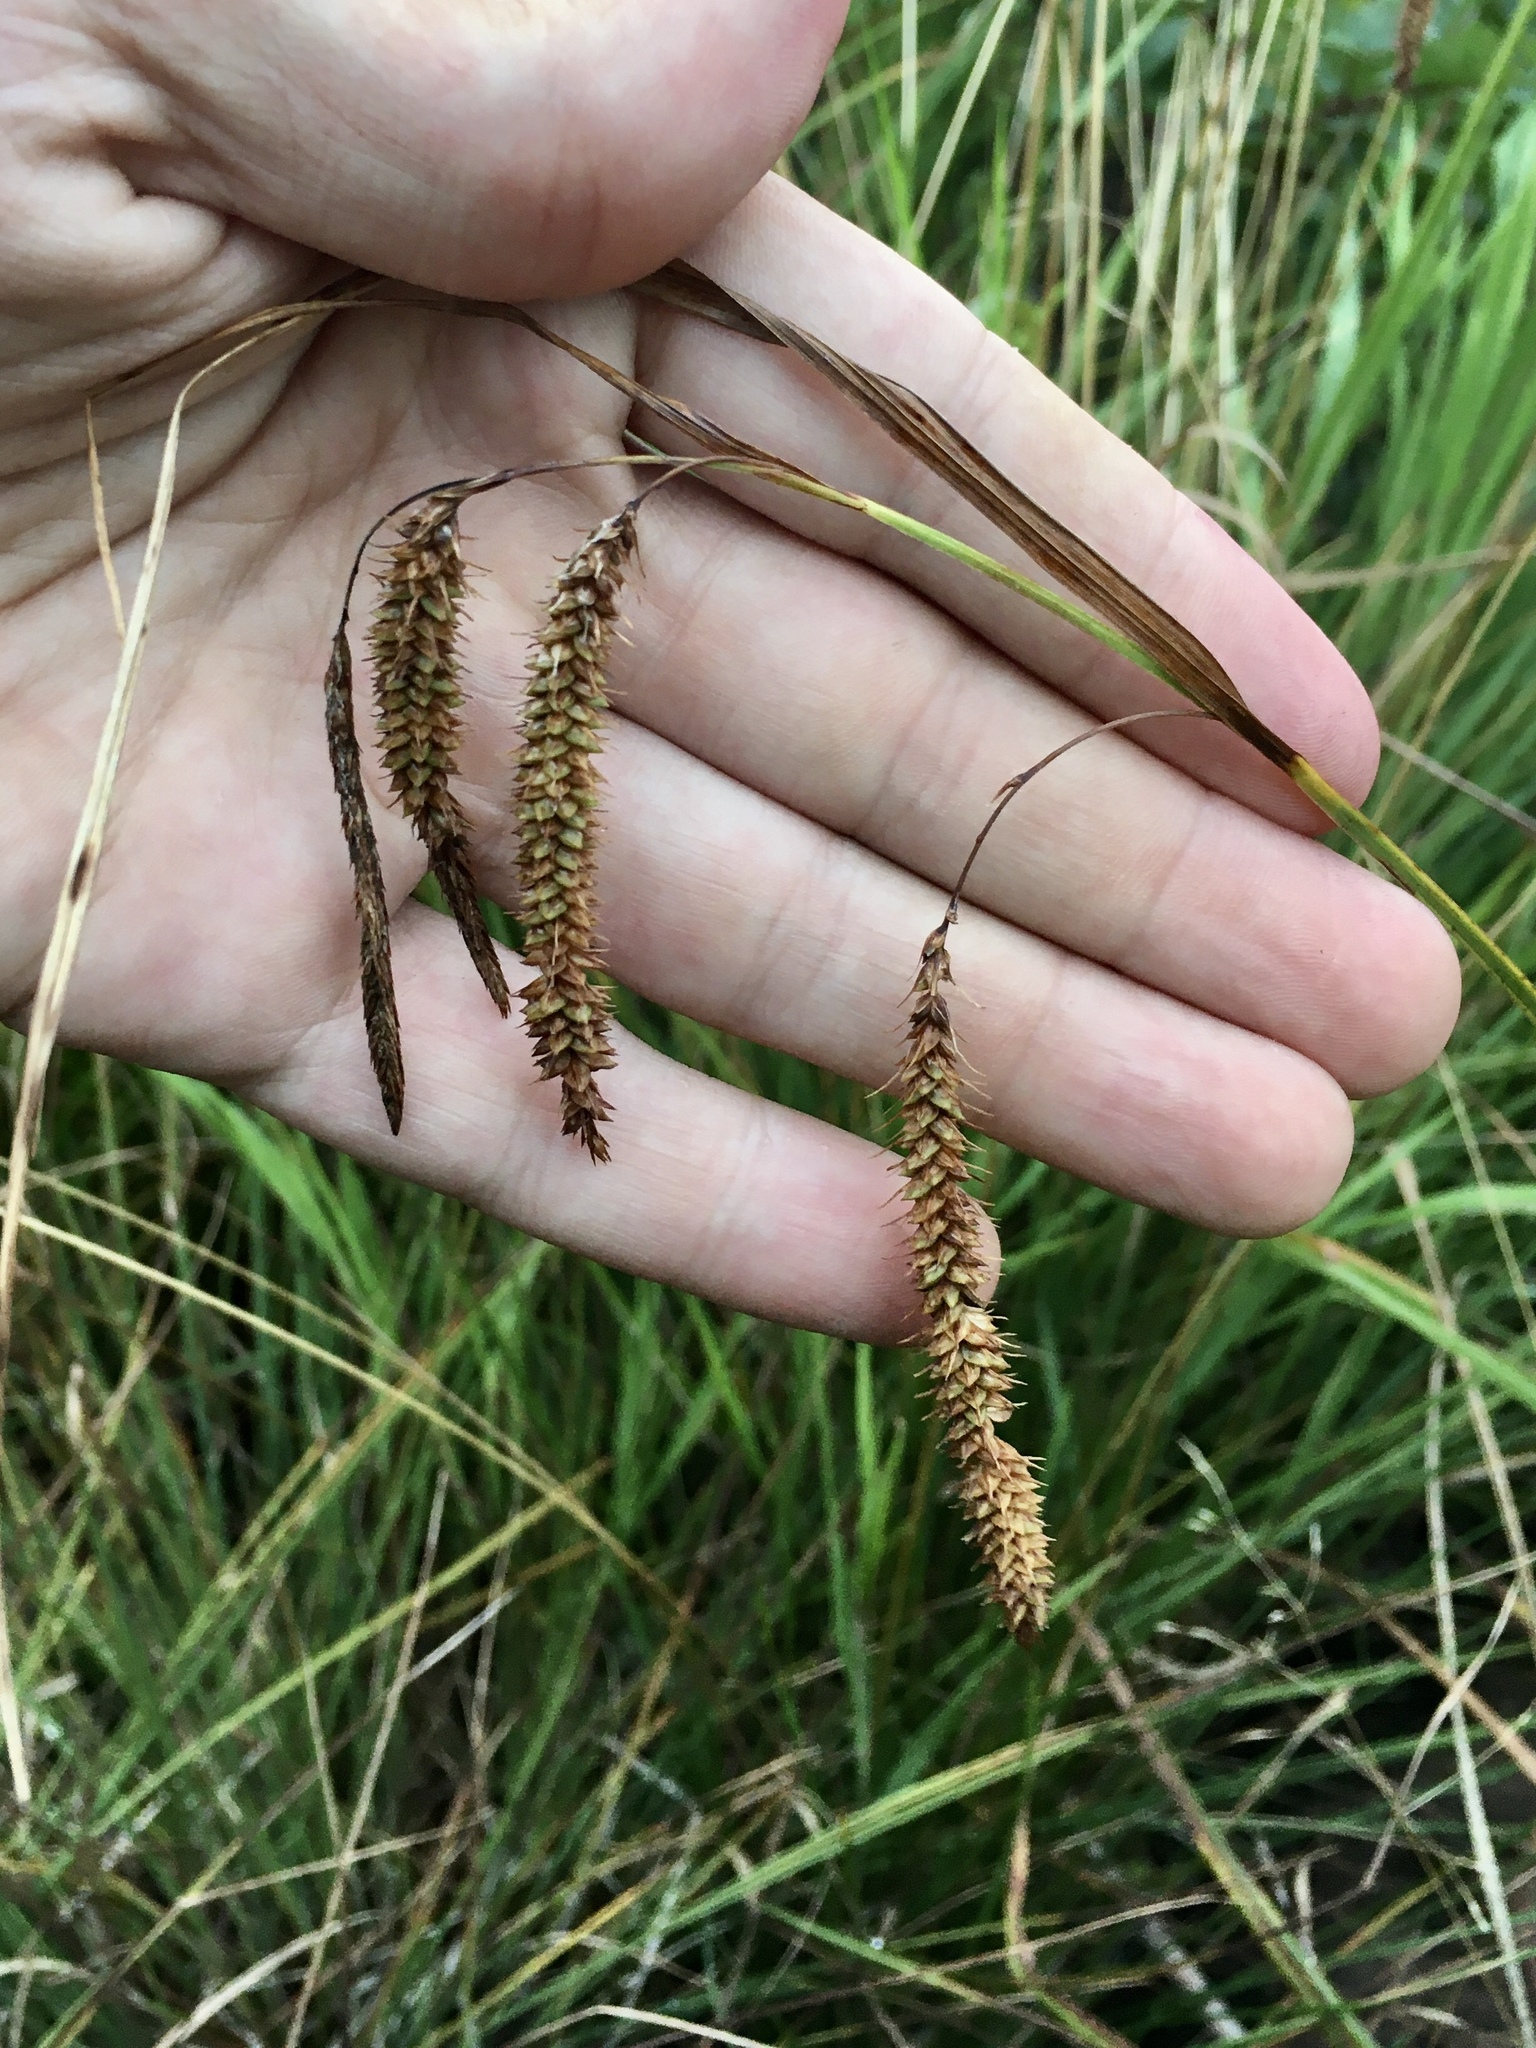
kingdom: Plantae
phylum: Tracheophyta
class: Liliopsida
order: Poales
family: Cyperaceae
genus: Carex
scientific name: Carex gynandra
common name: Nodding sedge
